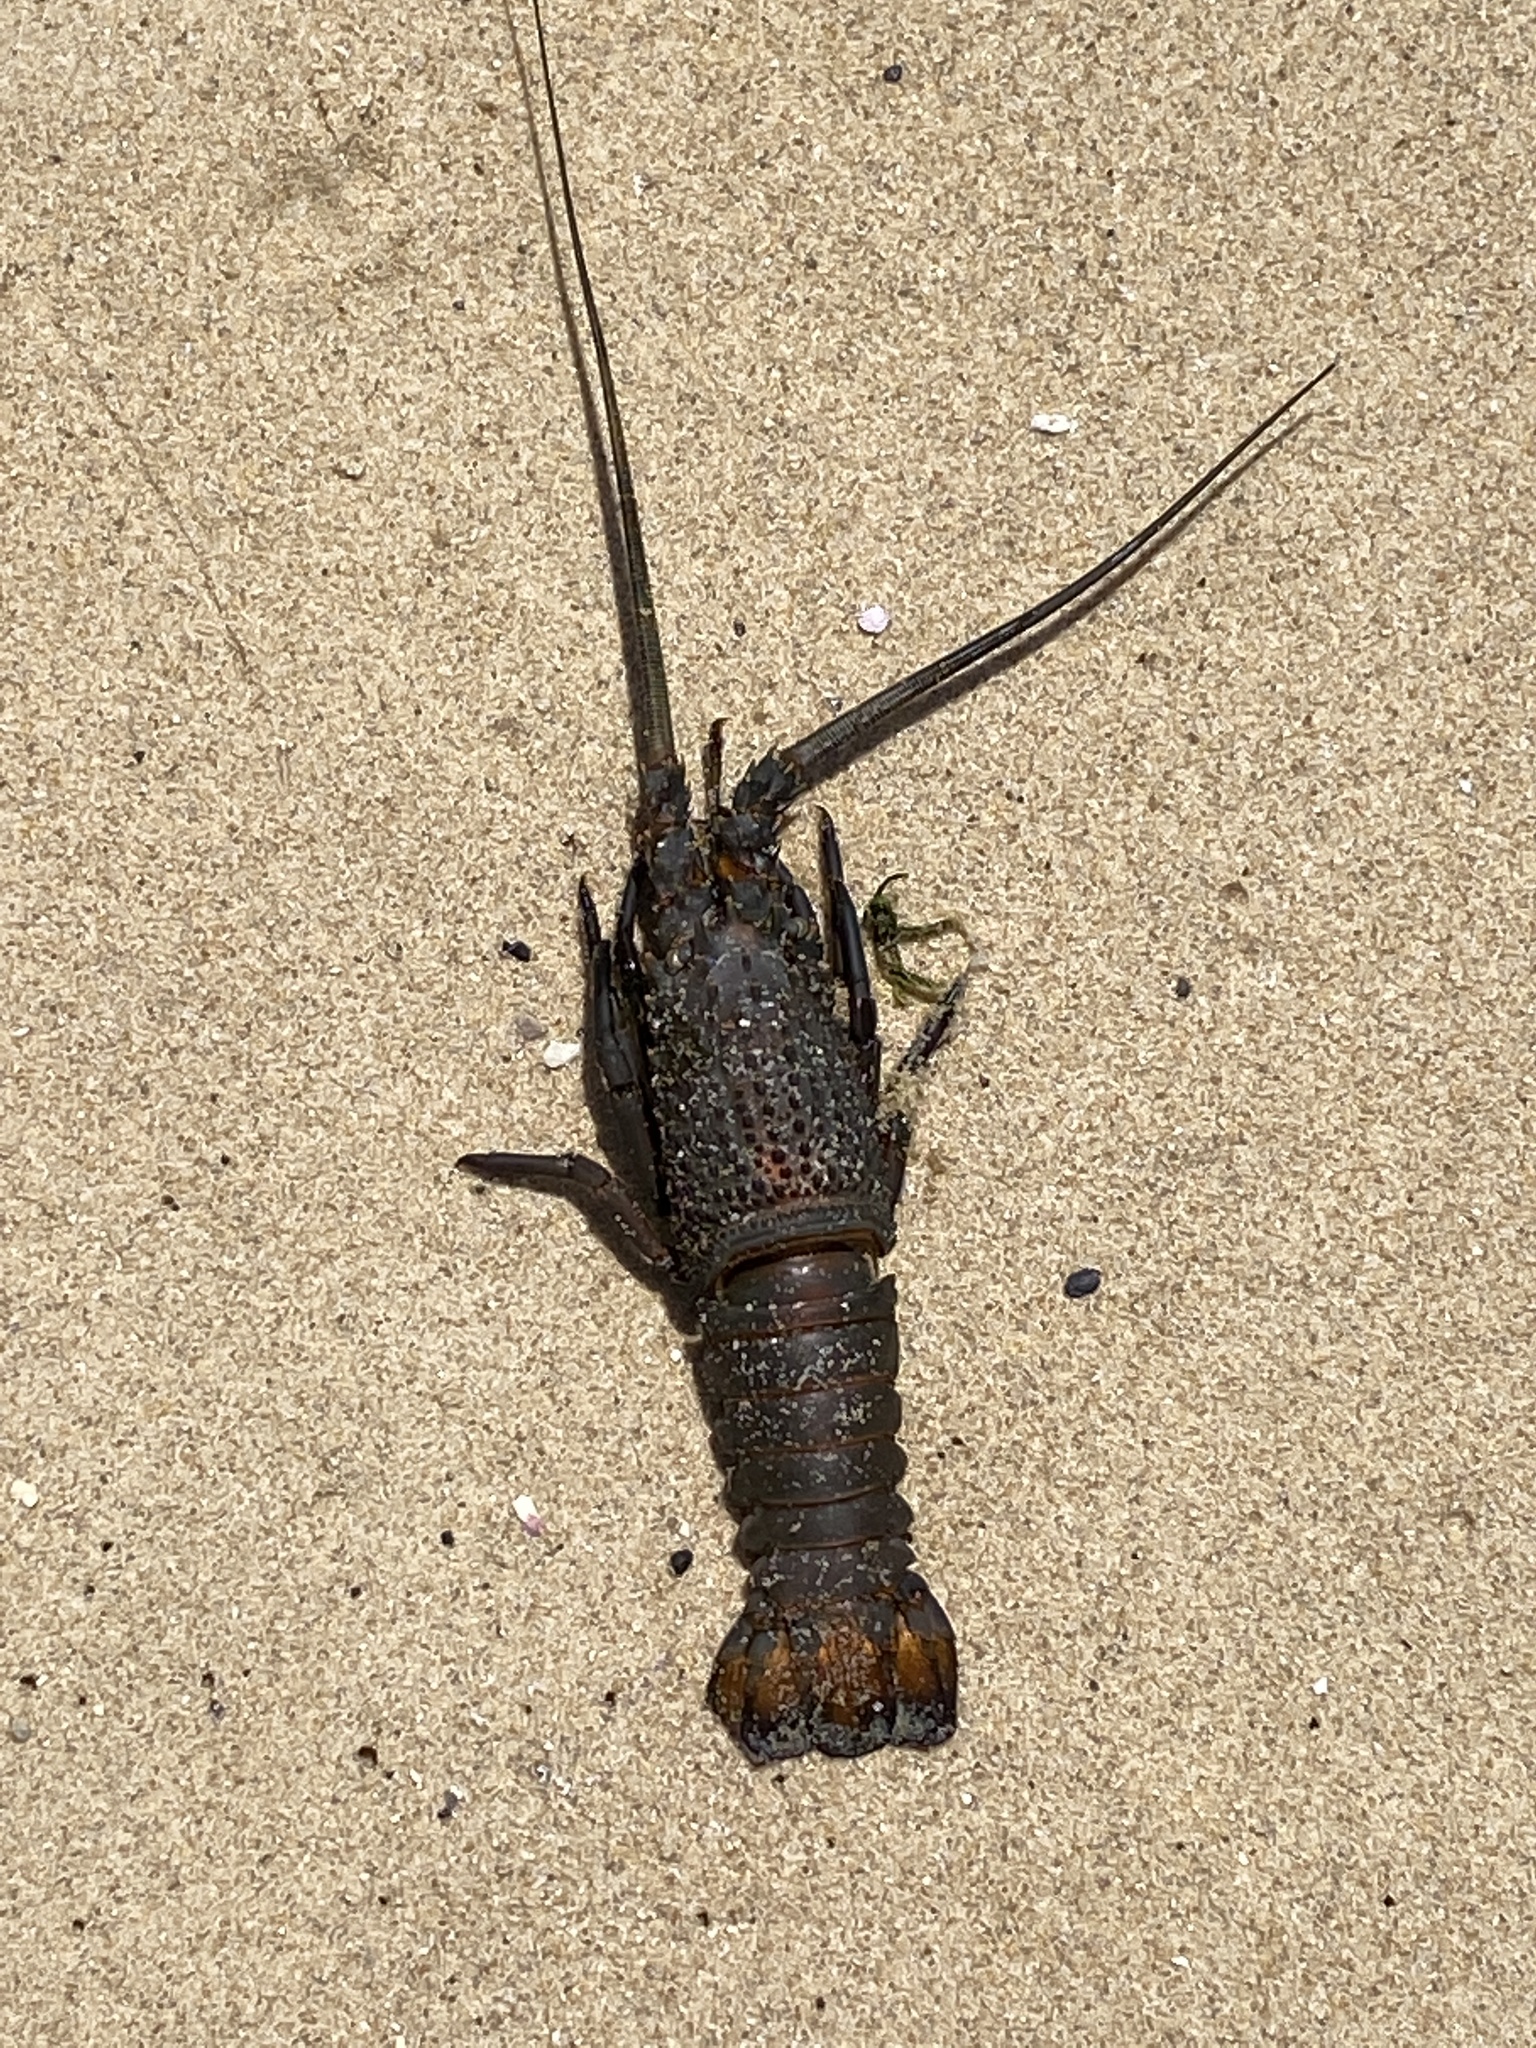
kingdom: Animalia
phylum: Arthropoda
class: Malacostraca
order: Decapoda
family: Palinuridae
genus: Sagmariasus
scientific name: Sagmariasus verreauxi
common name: Green rock lobster
